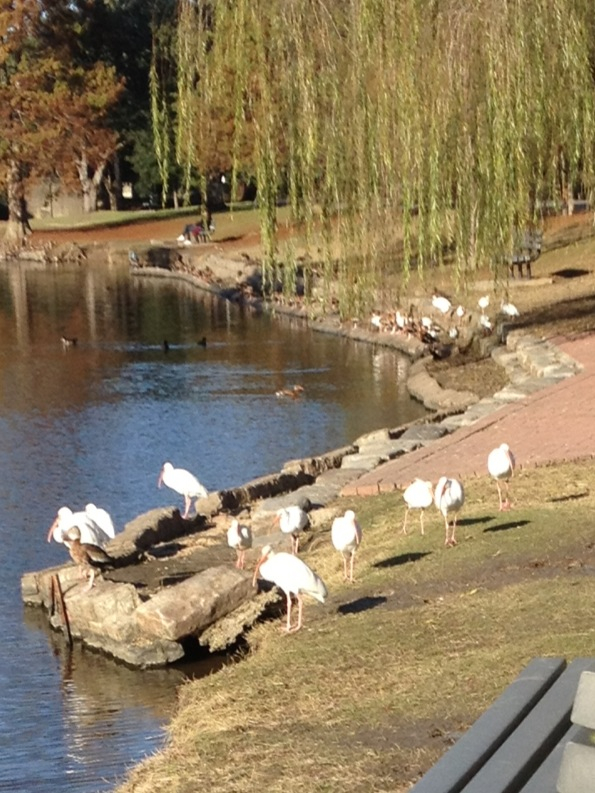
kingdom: Animalia
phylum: Chordata
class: Aves
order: Pelecaniformes
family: Threskiornithidae
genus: Eudocimus
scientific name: Eudocimus albus
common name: White ibis
